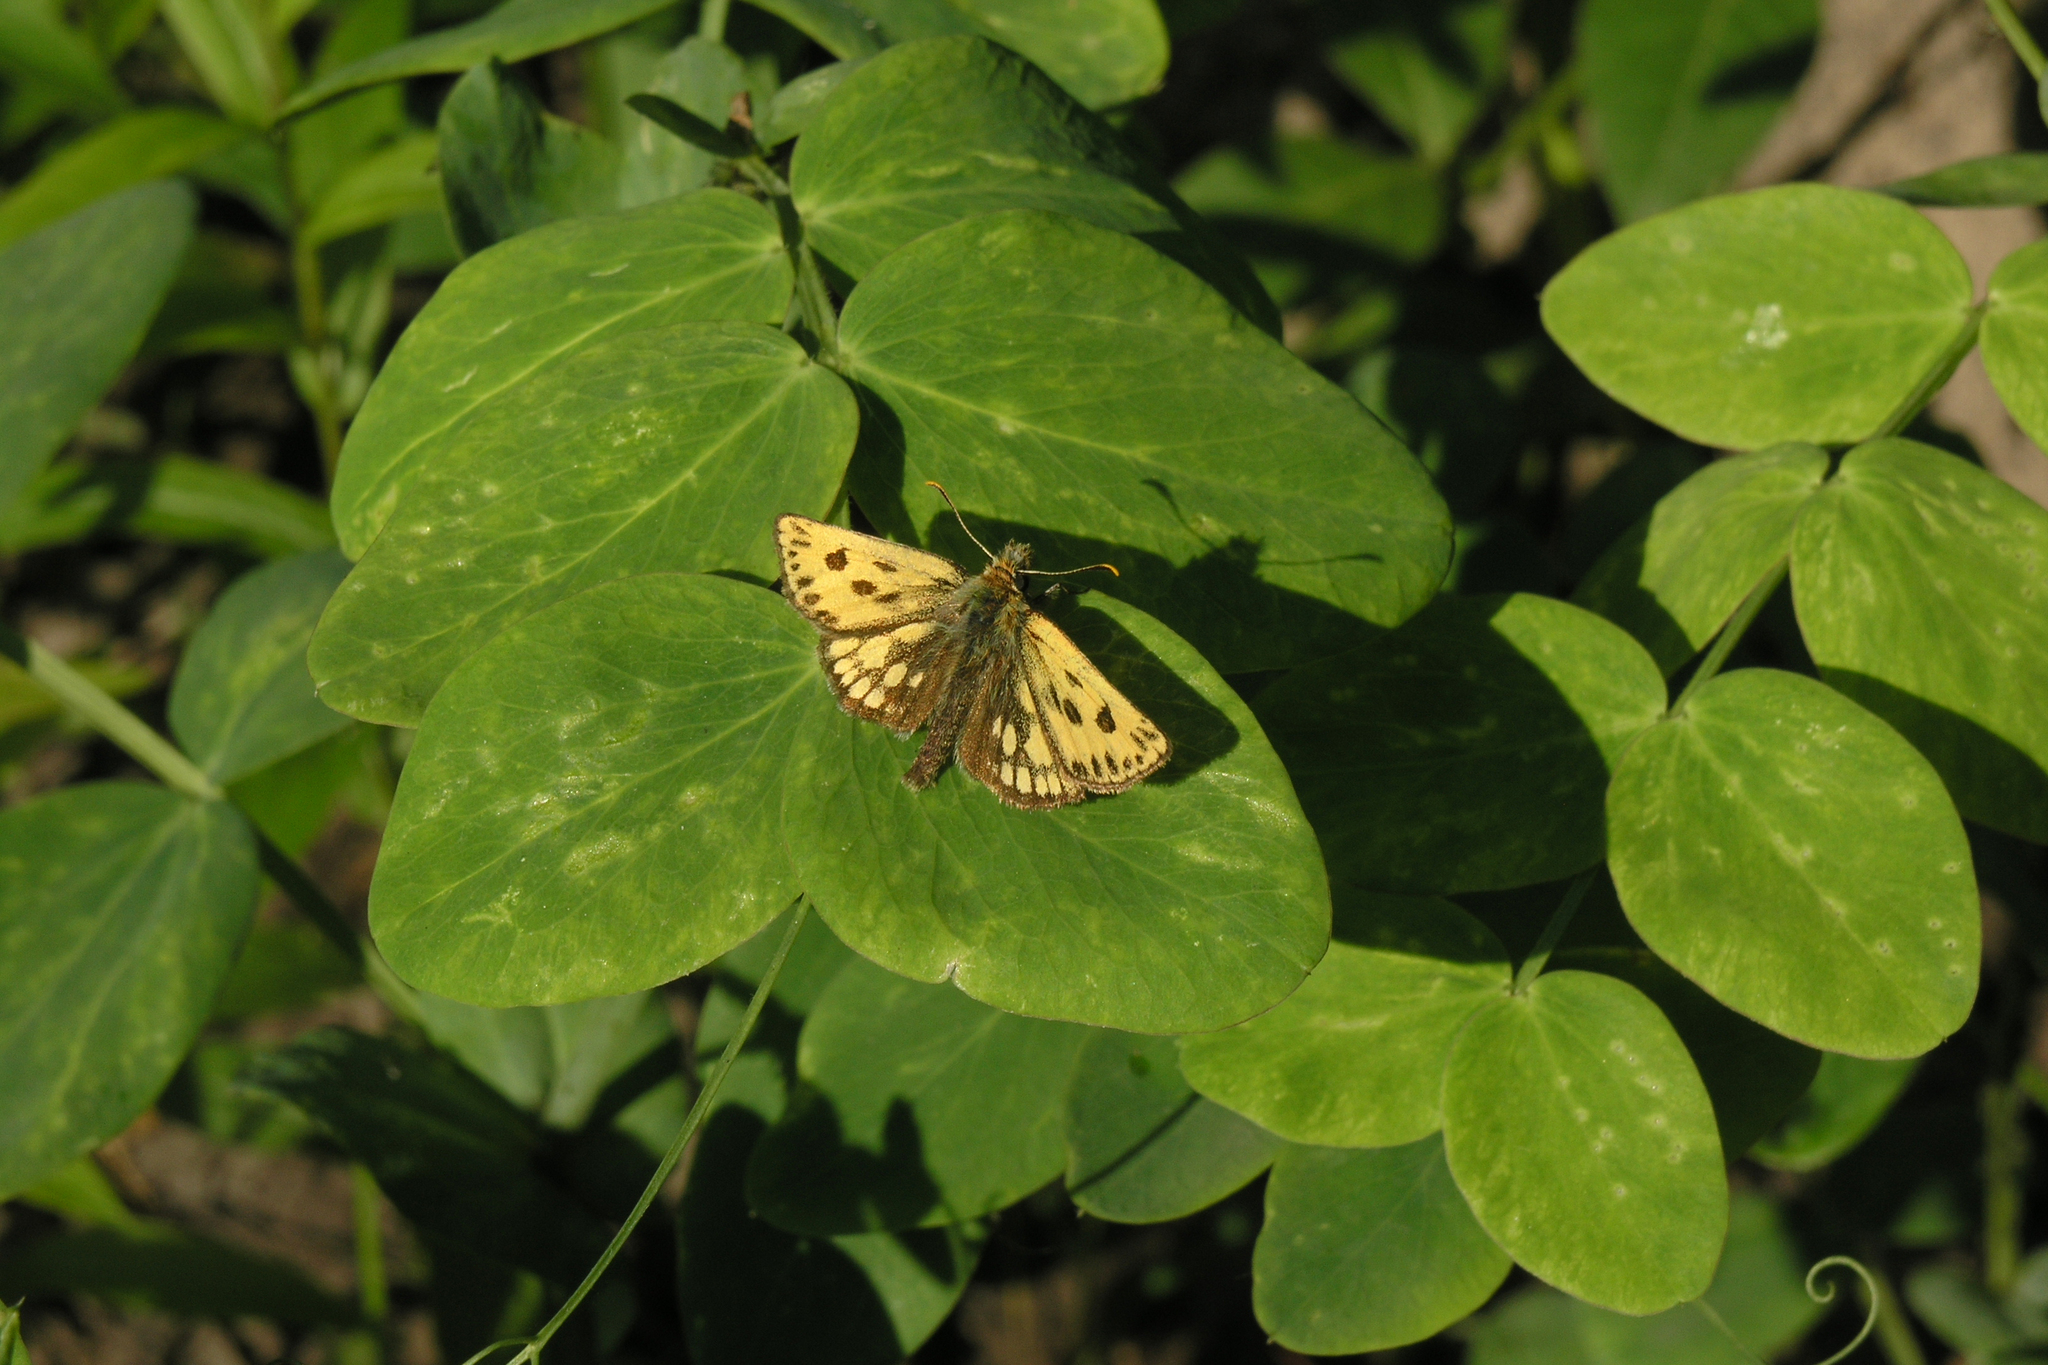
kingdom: Plantae
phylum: Tracheophyta
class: Magnoliopsida
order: Fabales
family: Fabaceae
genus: Astragalus
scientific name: Astragalus glycyphyllos
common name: Wild liquorice
